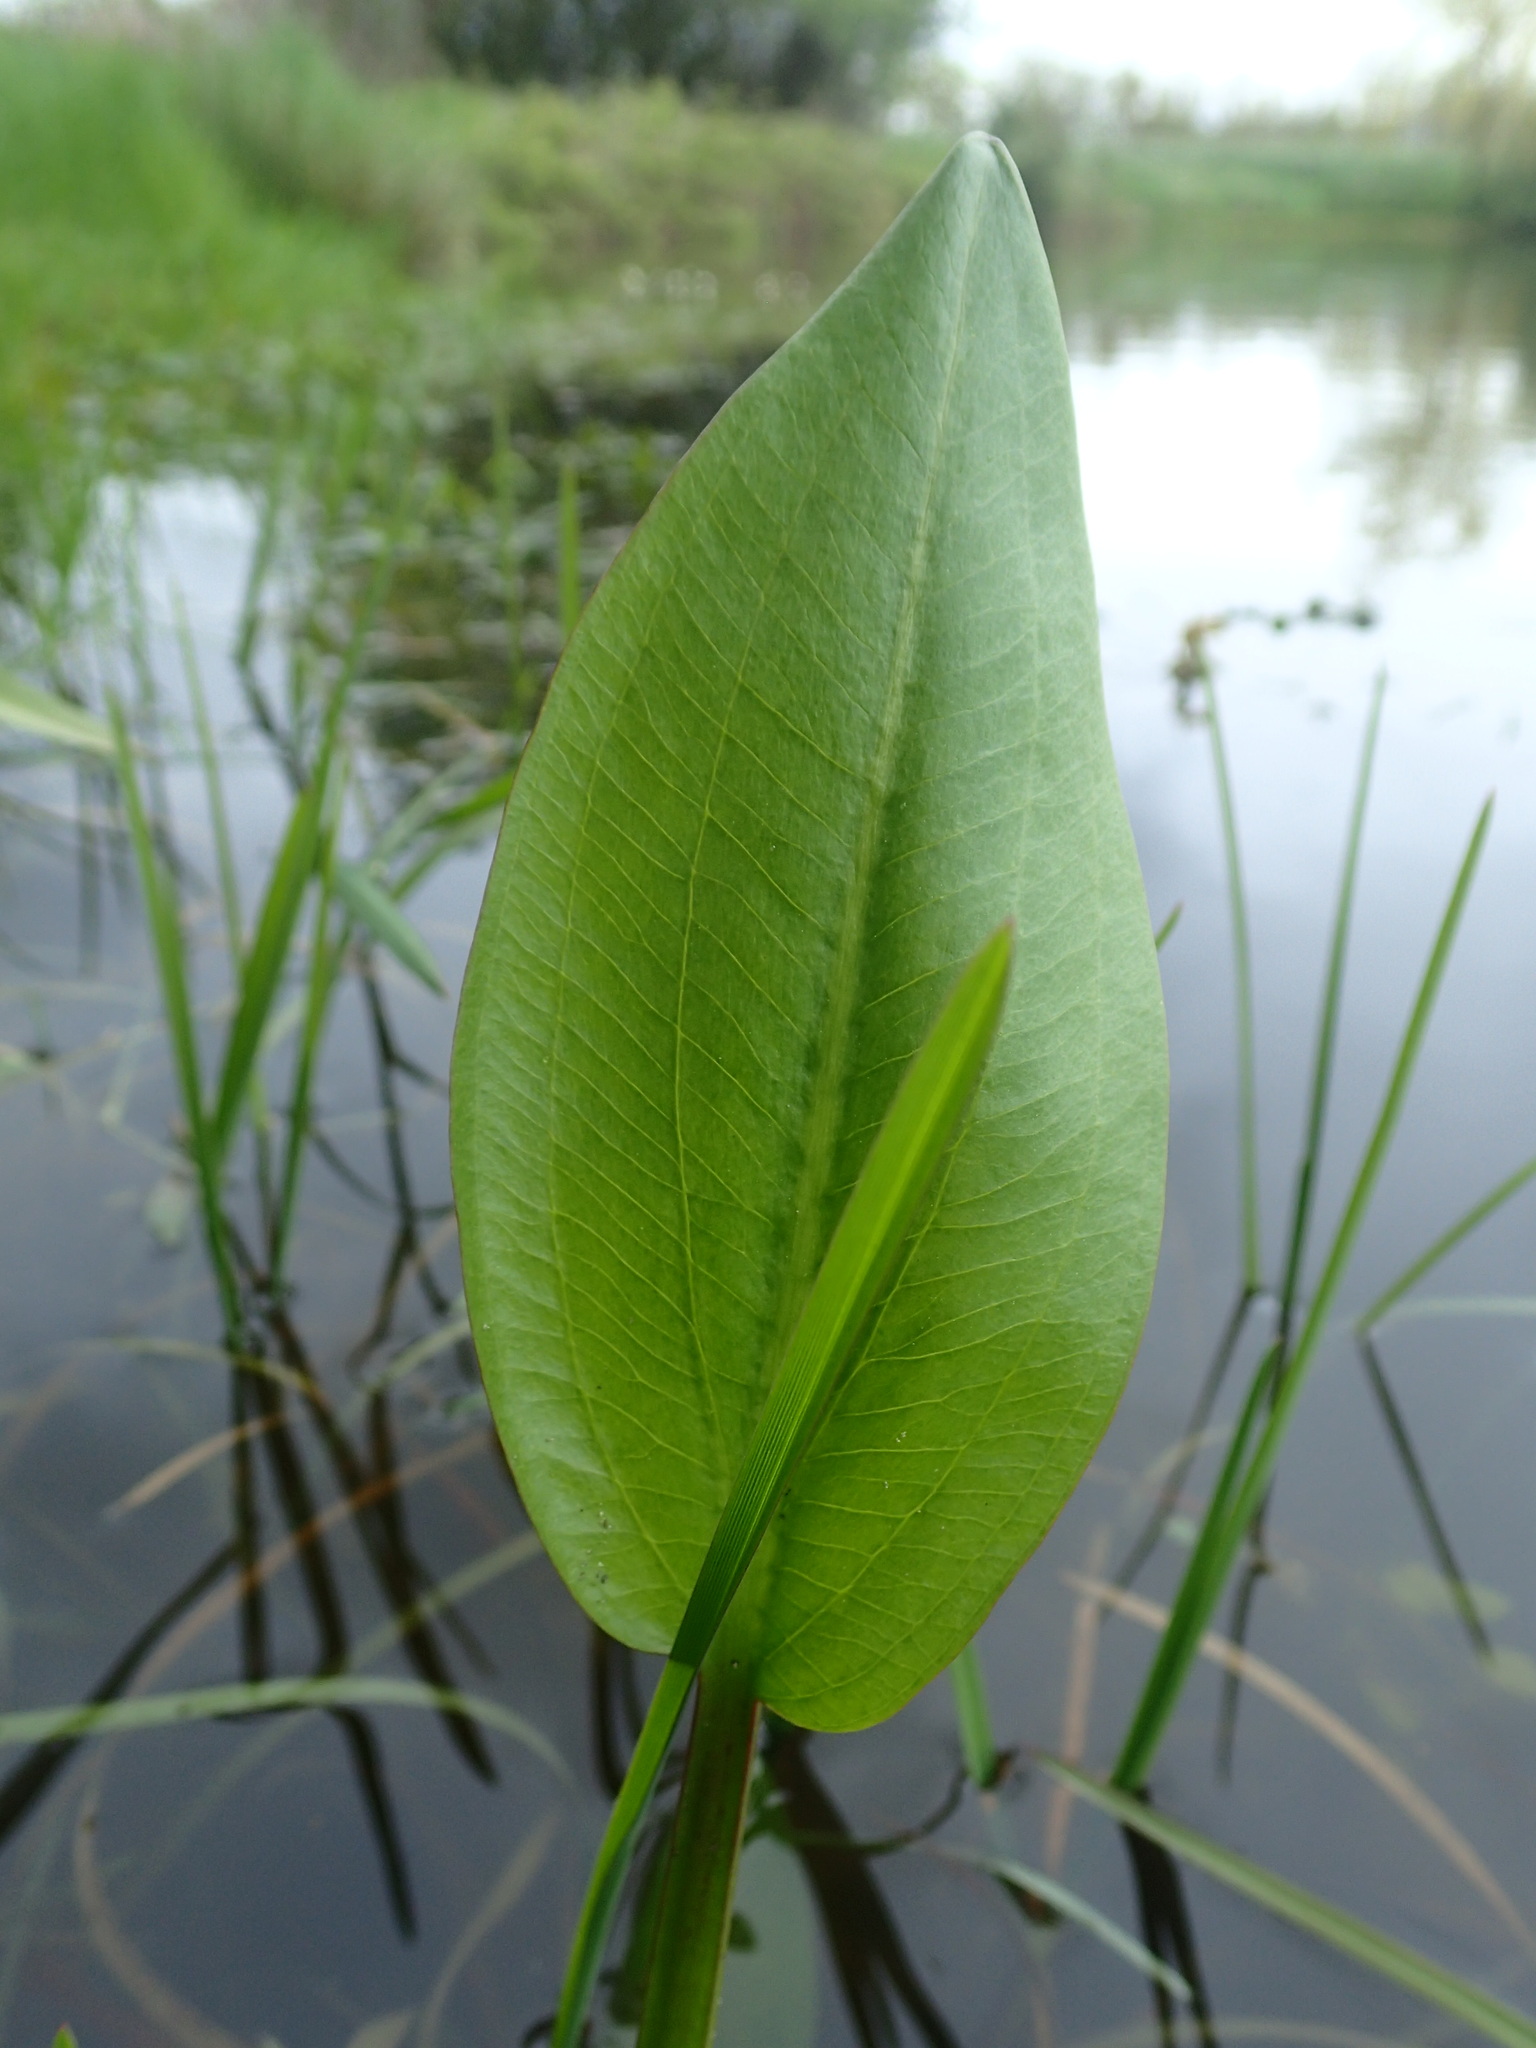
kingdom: Plantae
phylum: Tracheophyta
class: Liliopsida
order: Alismatales
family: Alismataceae
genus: Alisma
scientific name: Alisma plantago-aquatica
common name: Water-plantain
